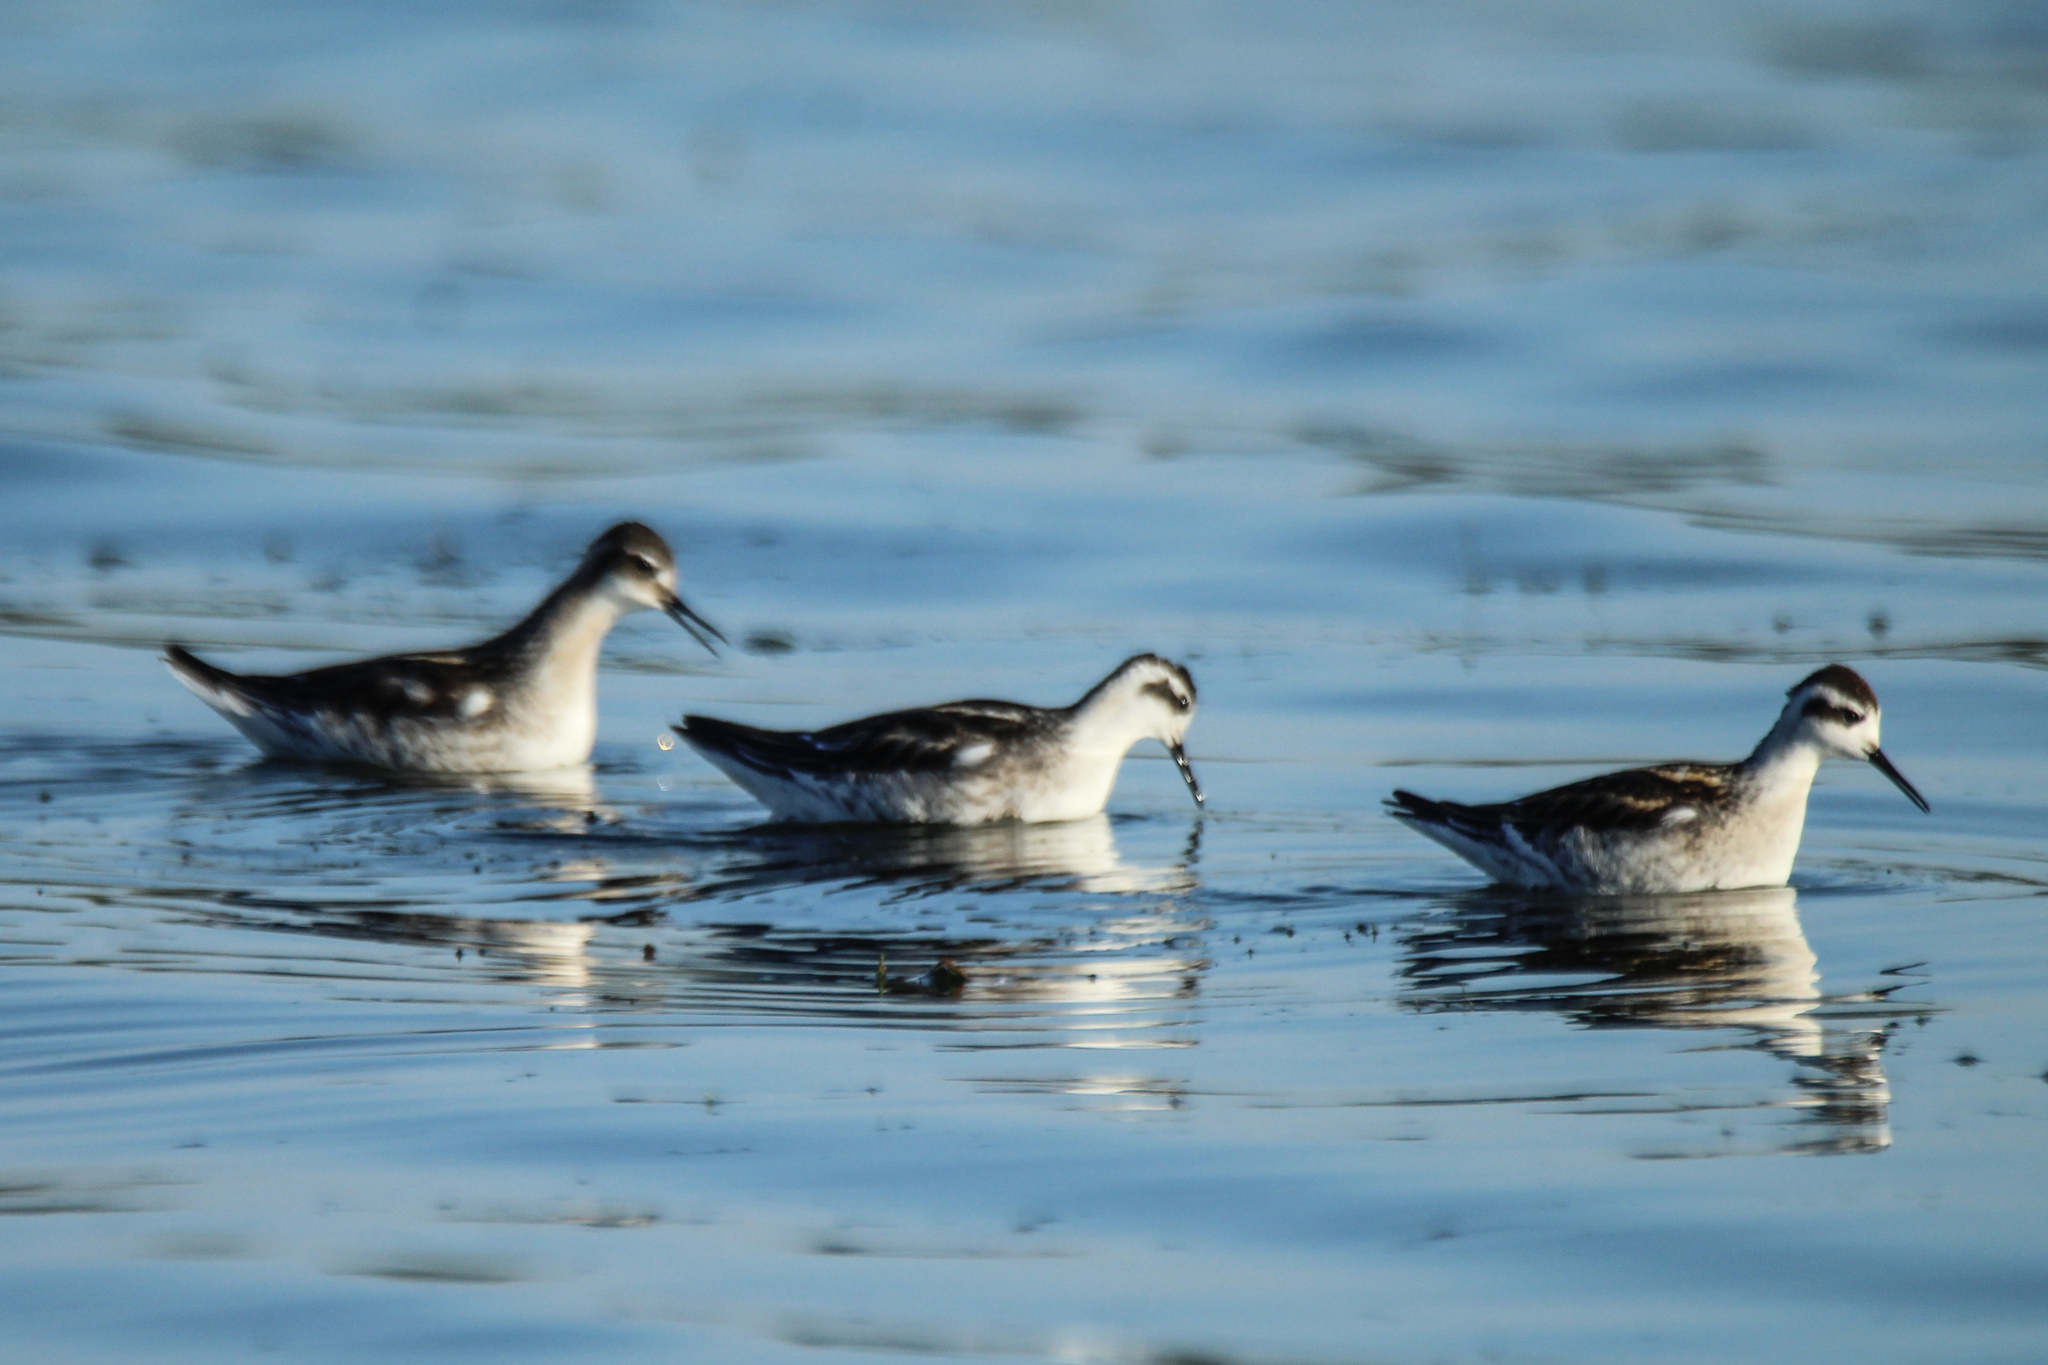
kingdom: Animalia
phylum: Chordata
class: Aves
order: Charadriiformes
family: Scolopacidae
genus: Phalaropus
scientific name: Phalaropus lobatus
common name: Red-necked phalarope
